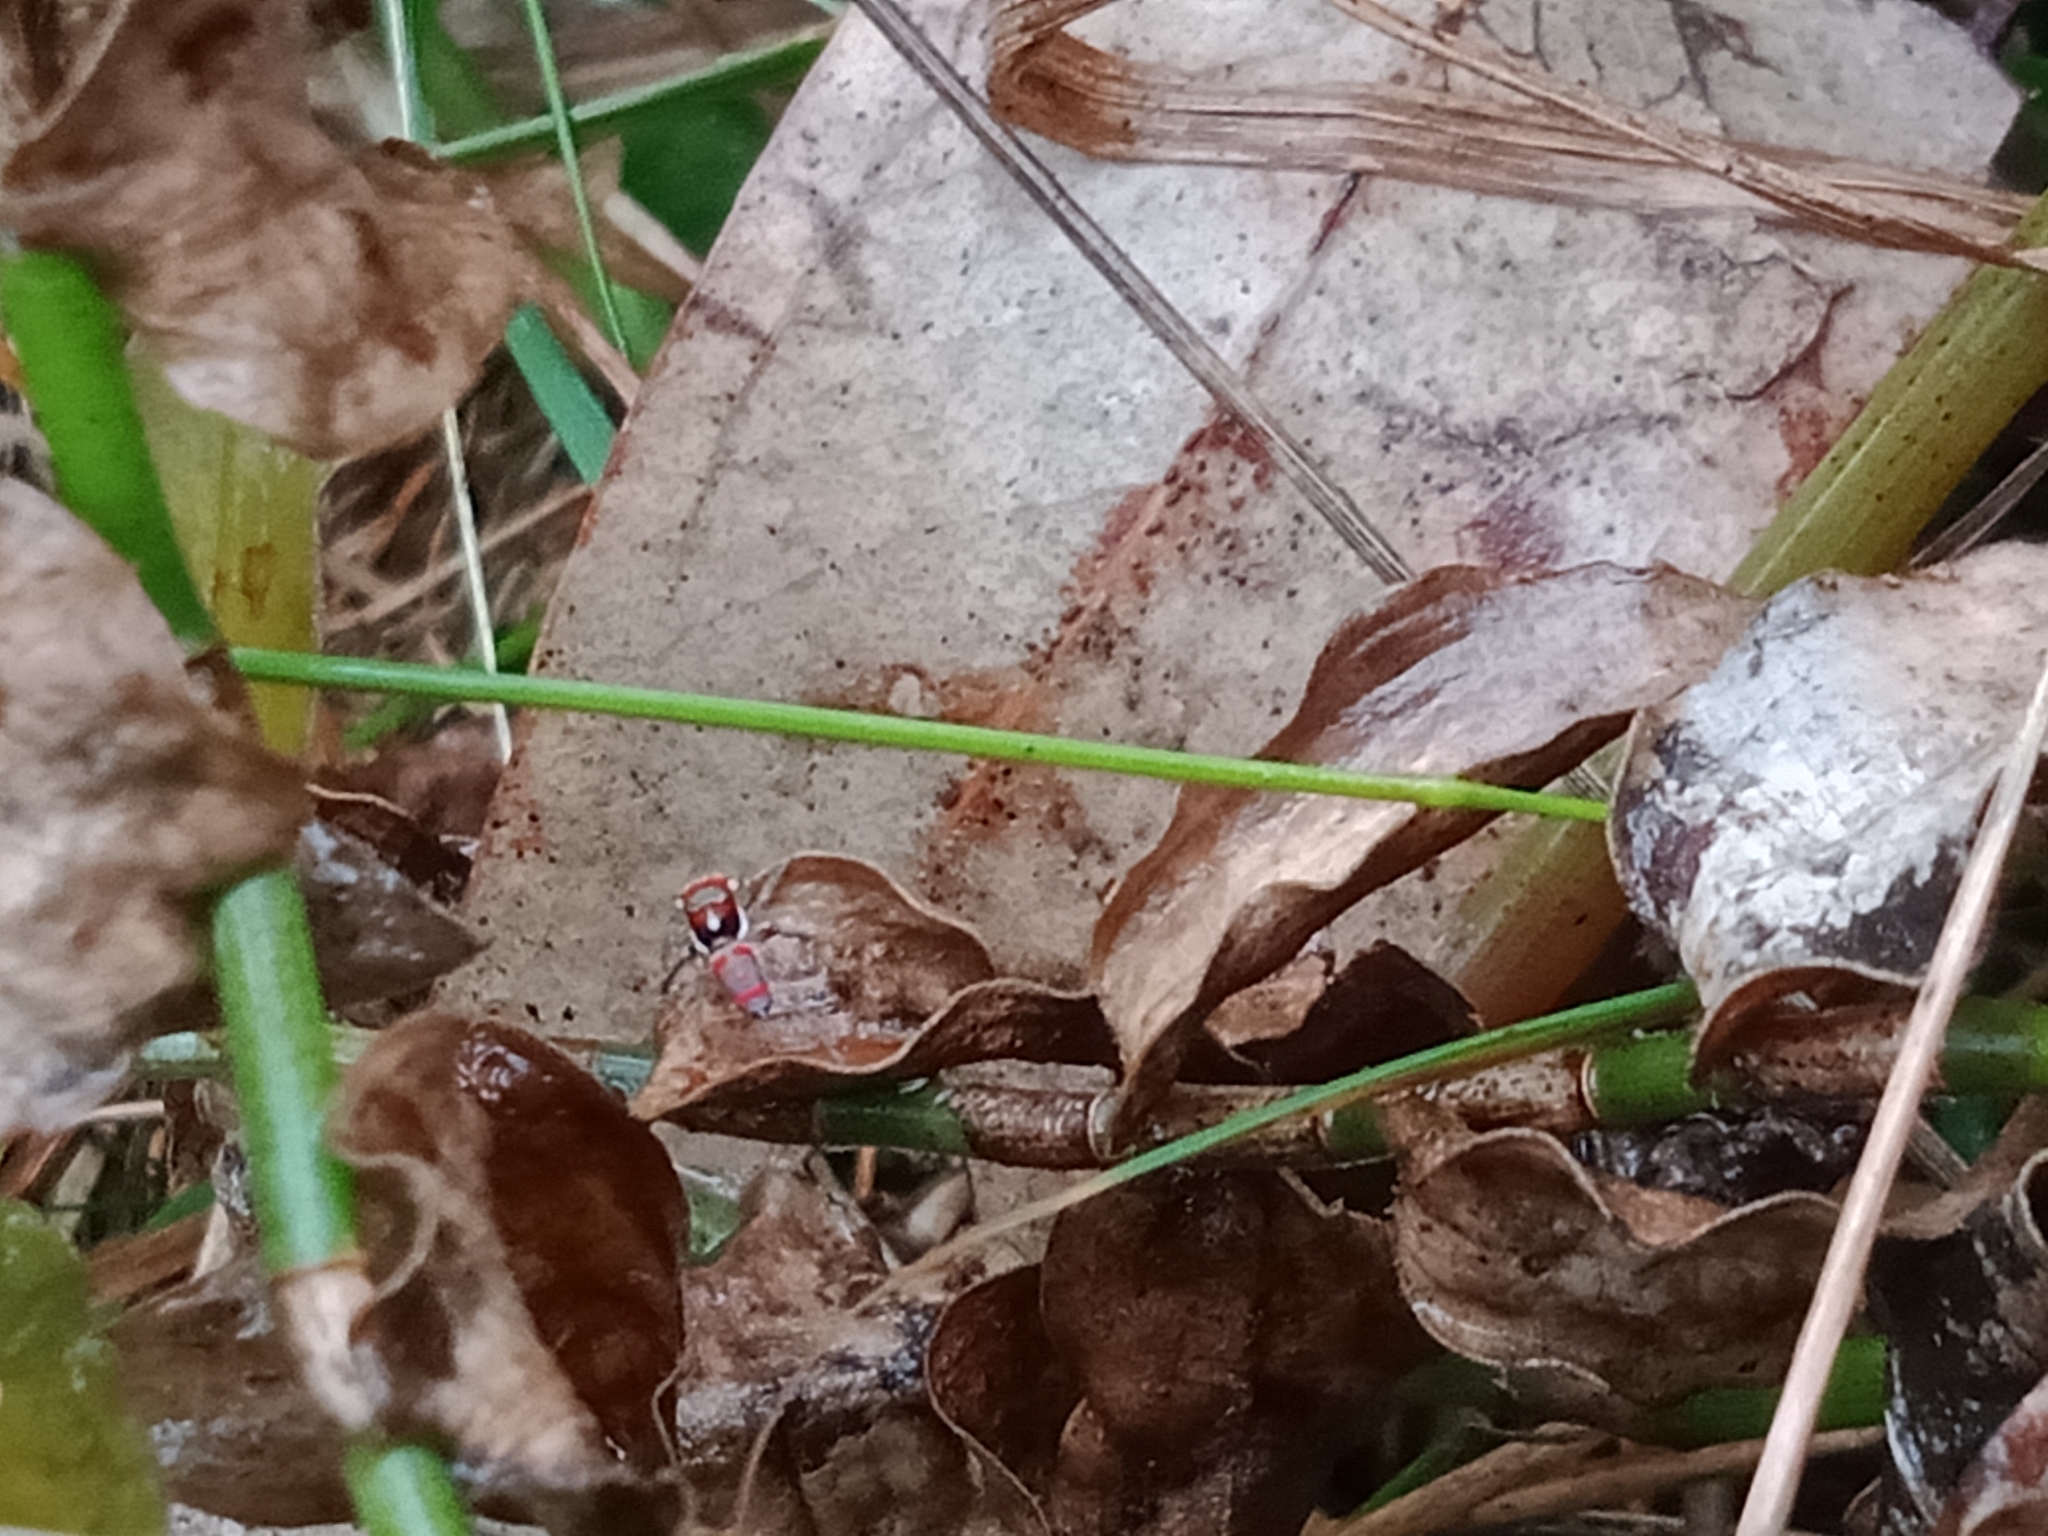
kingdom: Animalia
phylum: Arthropoda
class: Arachnida
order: Araneae
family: Salticidae
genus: Maratus
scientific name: Maratus splendens
